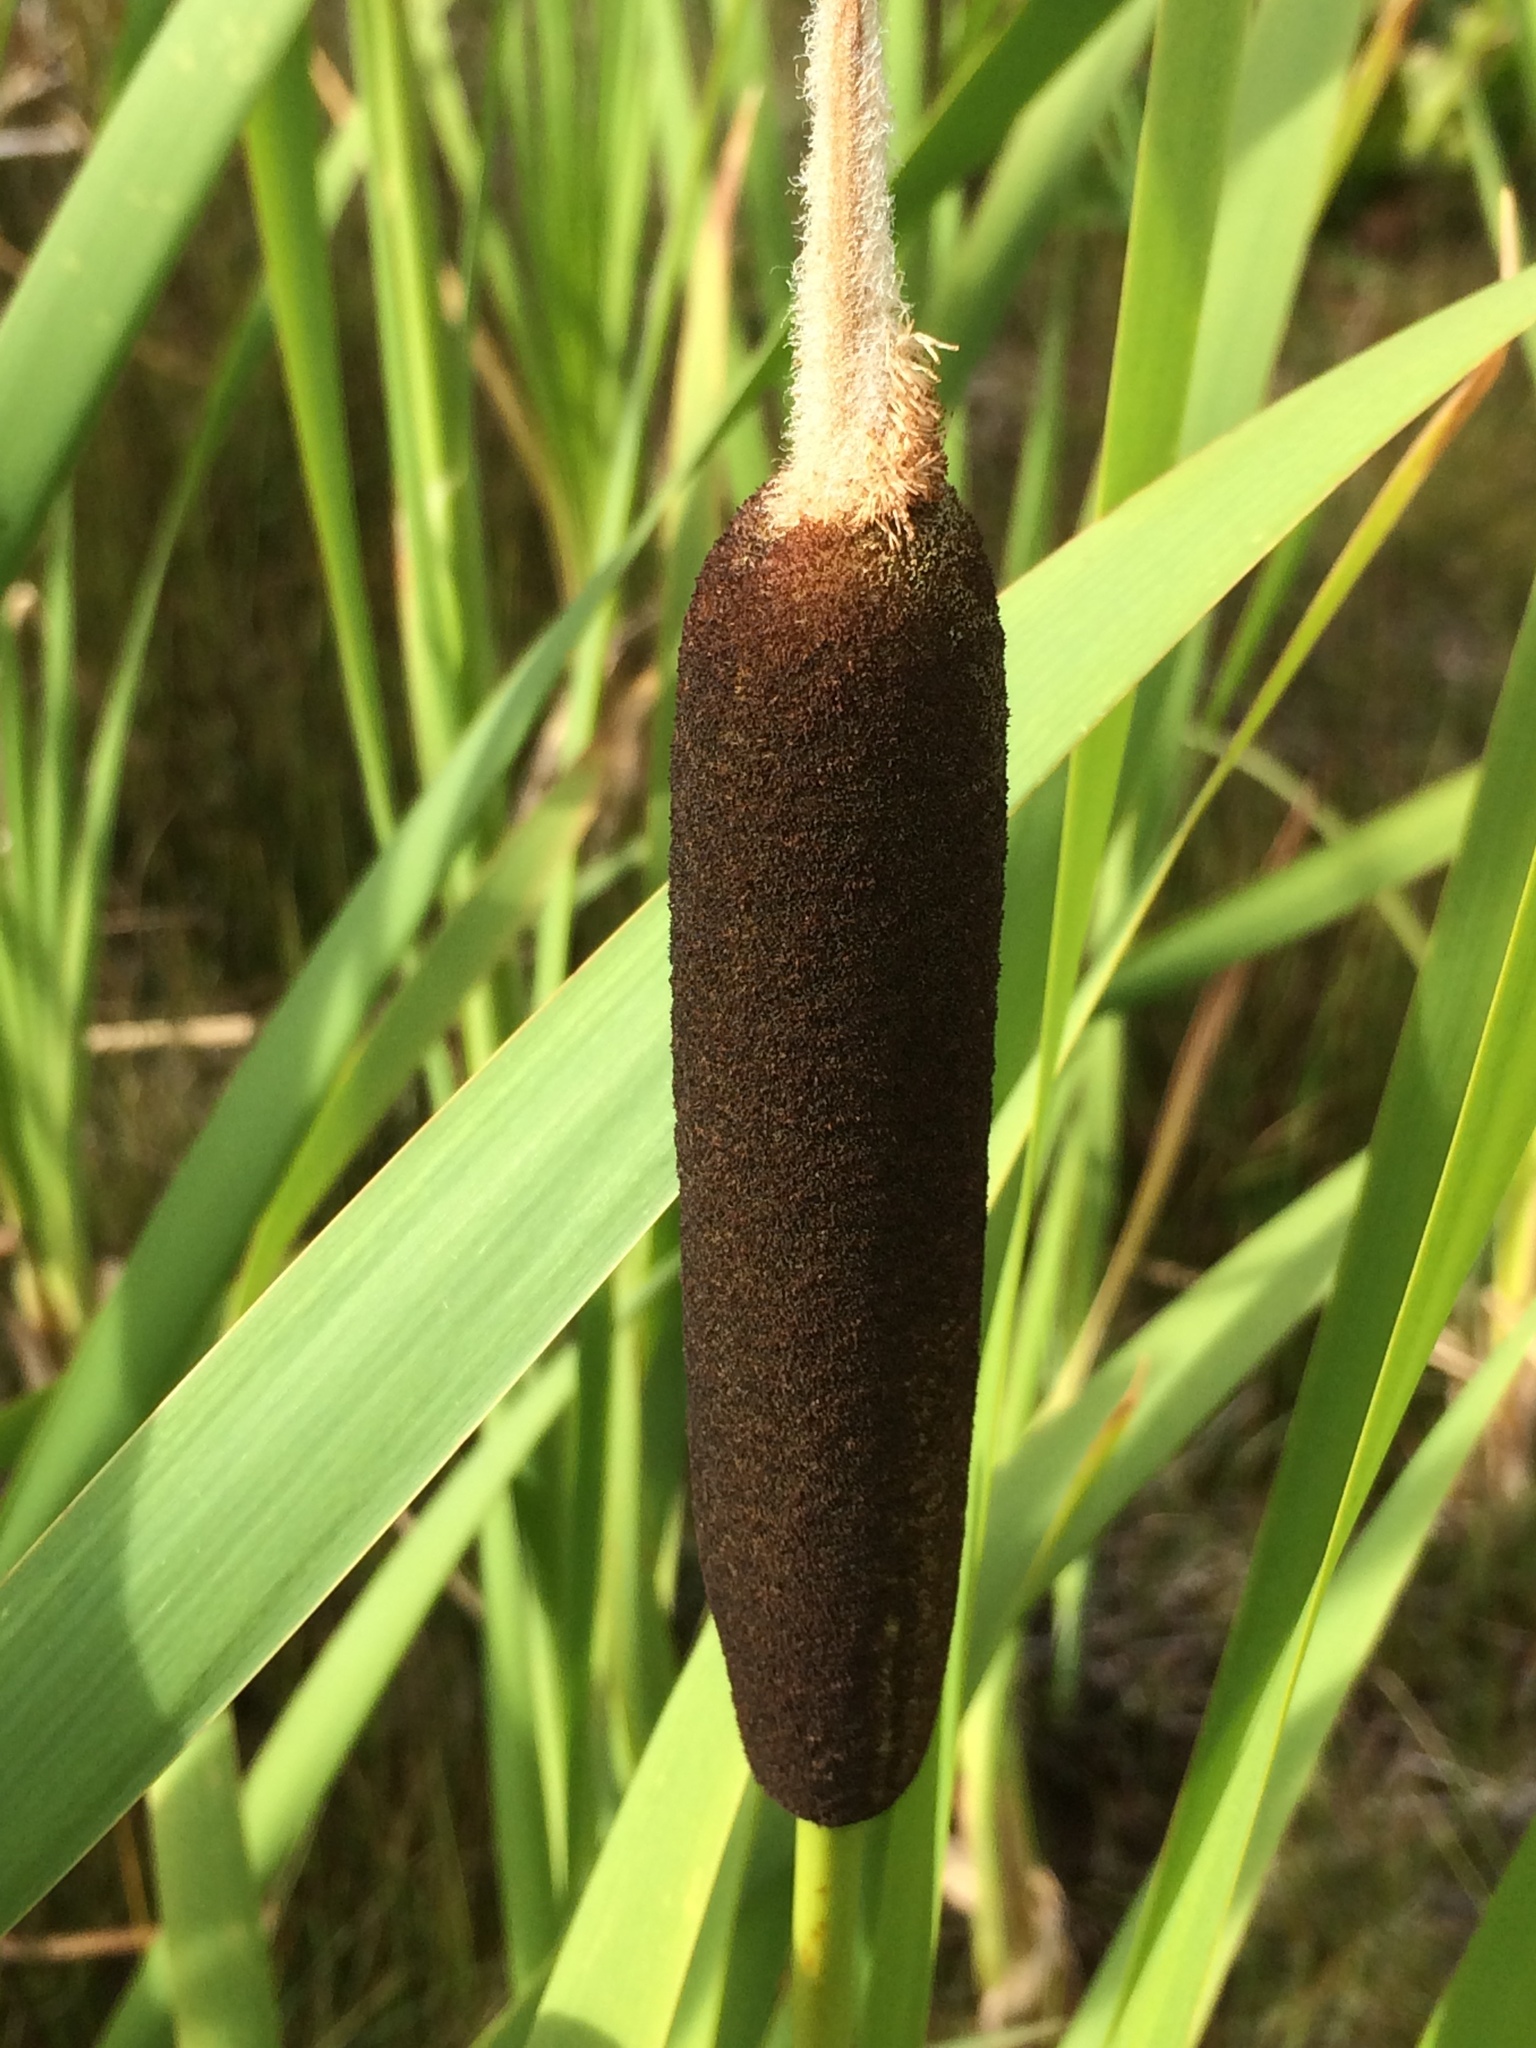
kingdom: Plantae
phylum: Tracheophyta
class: Liliopsida
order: Poales
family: Typhaceae
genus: Typha
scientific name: Typha latifolia
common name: Broadleaf cattail
